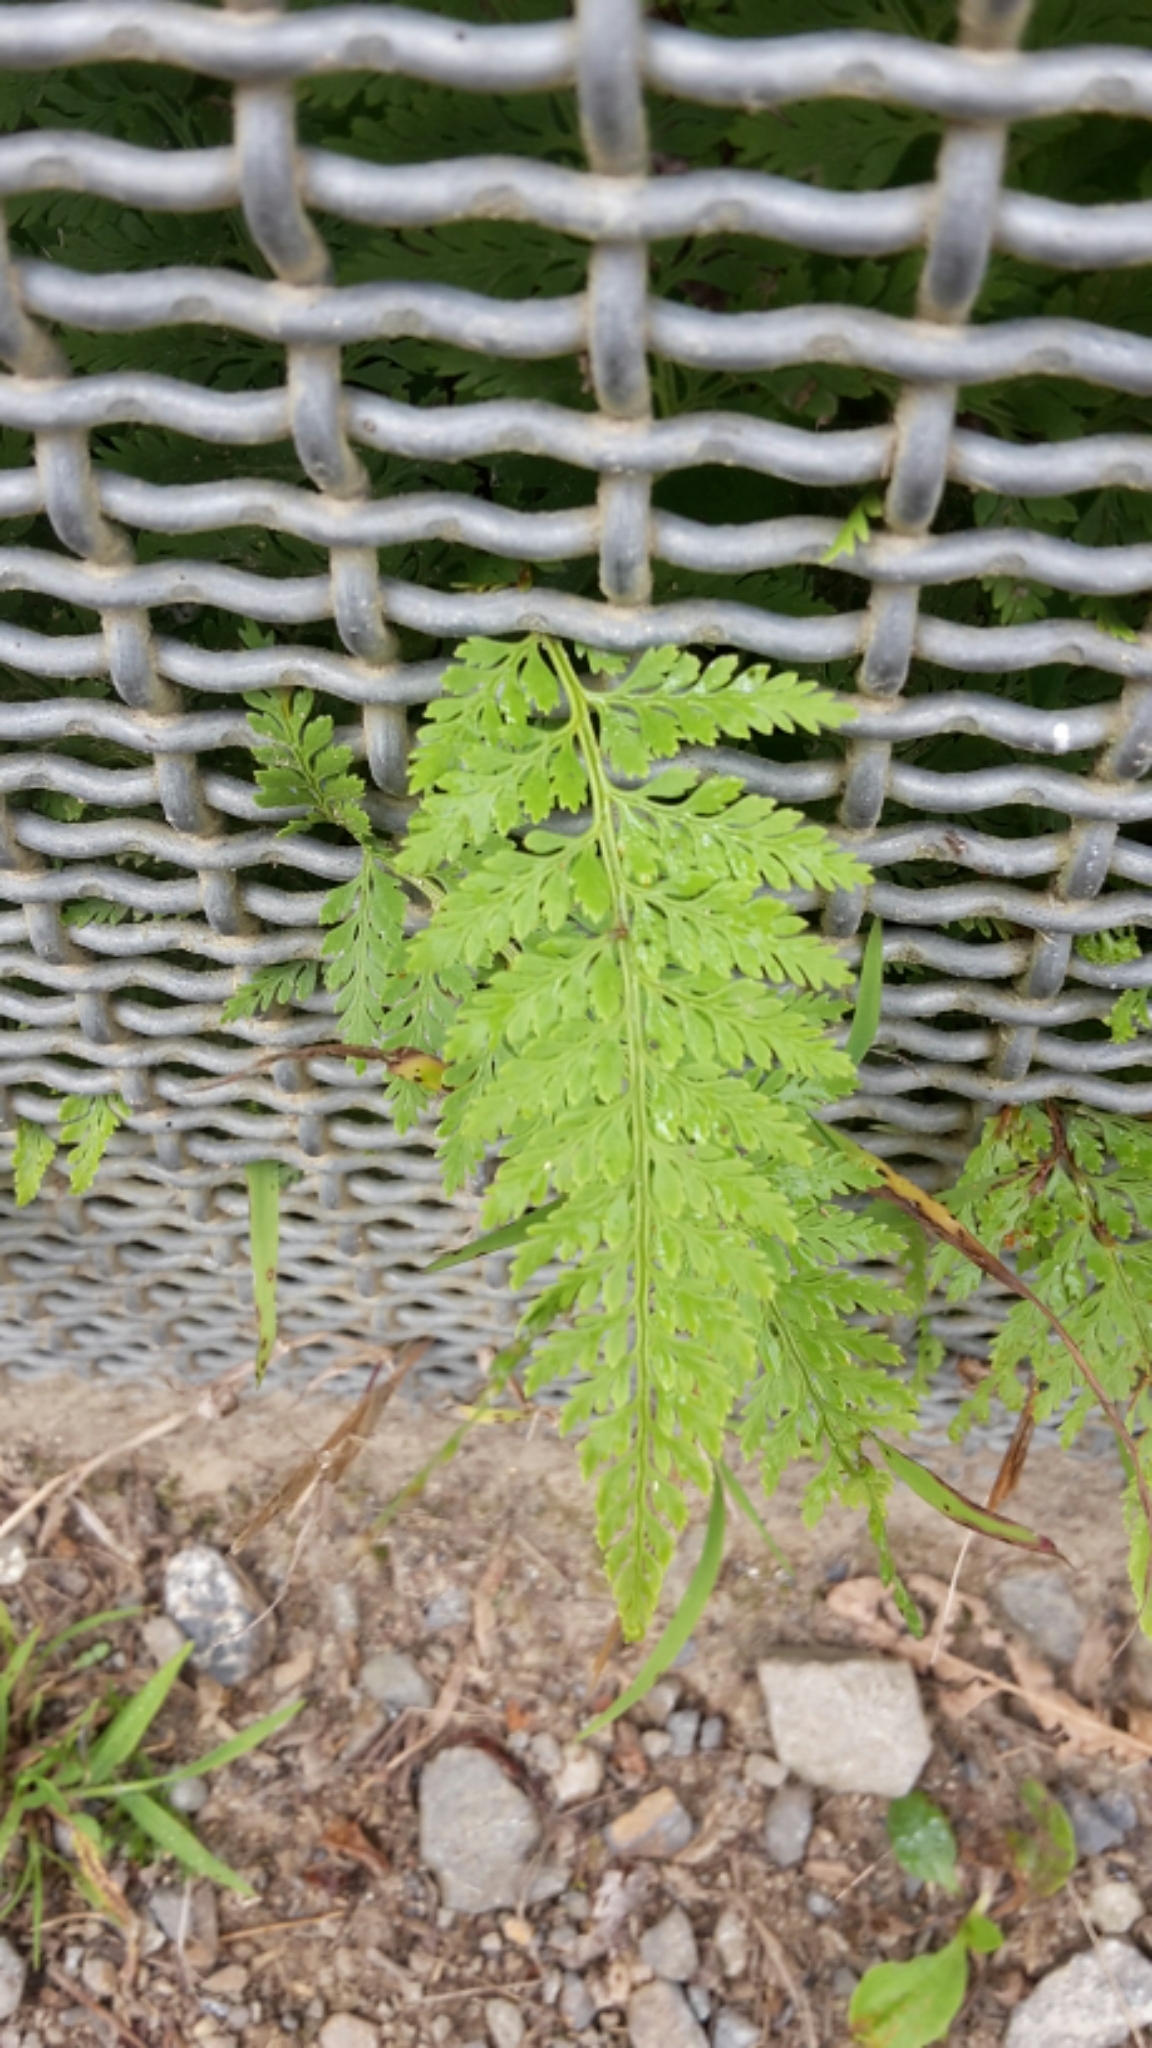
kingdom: Plantae
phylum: Tracheophyta
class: Polypodiopsida
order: Polypodiales
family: Dennstaedtiaceae
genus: Paesia
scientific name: Paesia scaberula
